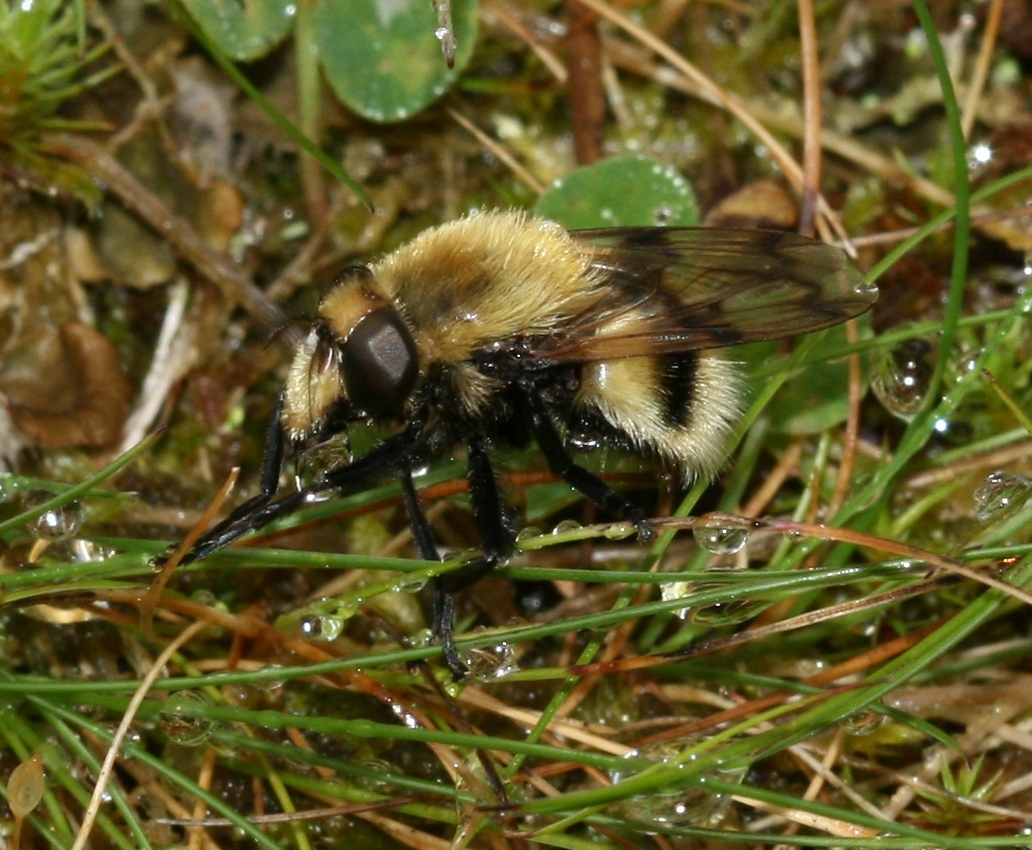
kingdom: Animalia
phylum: Arthropoda
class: Insecta
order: Diptera
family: Syrphidae
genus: Volucella
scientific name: Volucella bombylans
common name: Bumble bee hover fly
